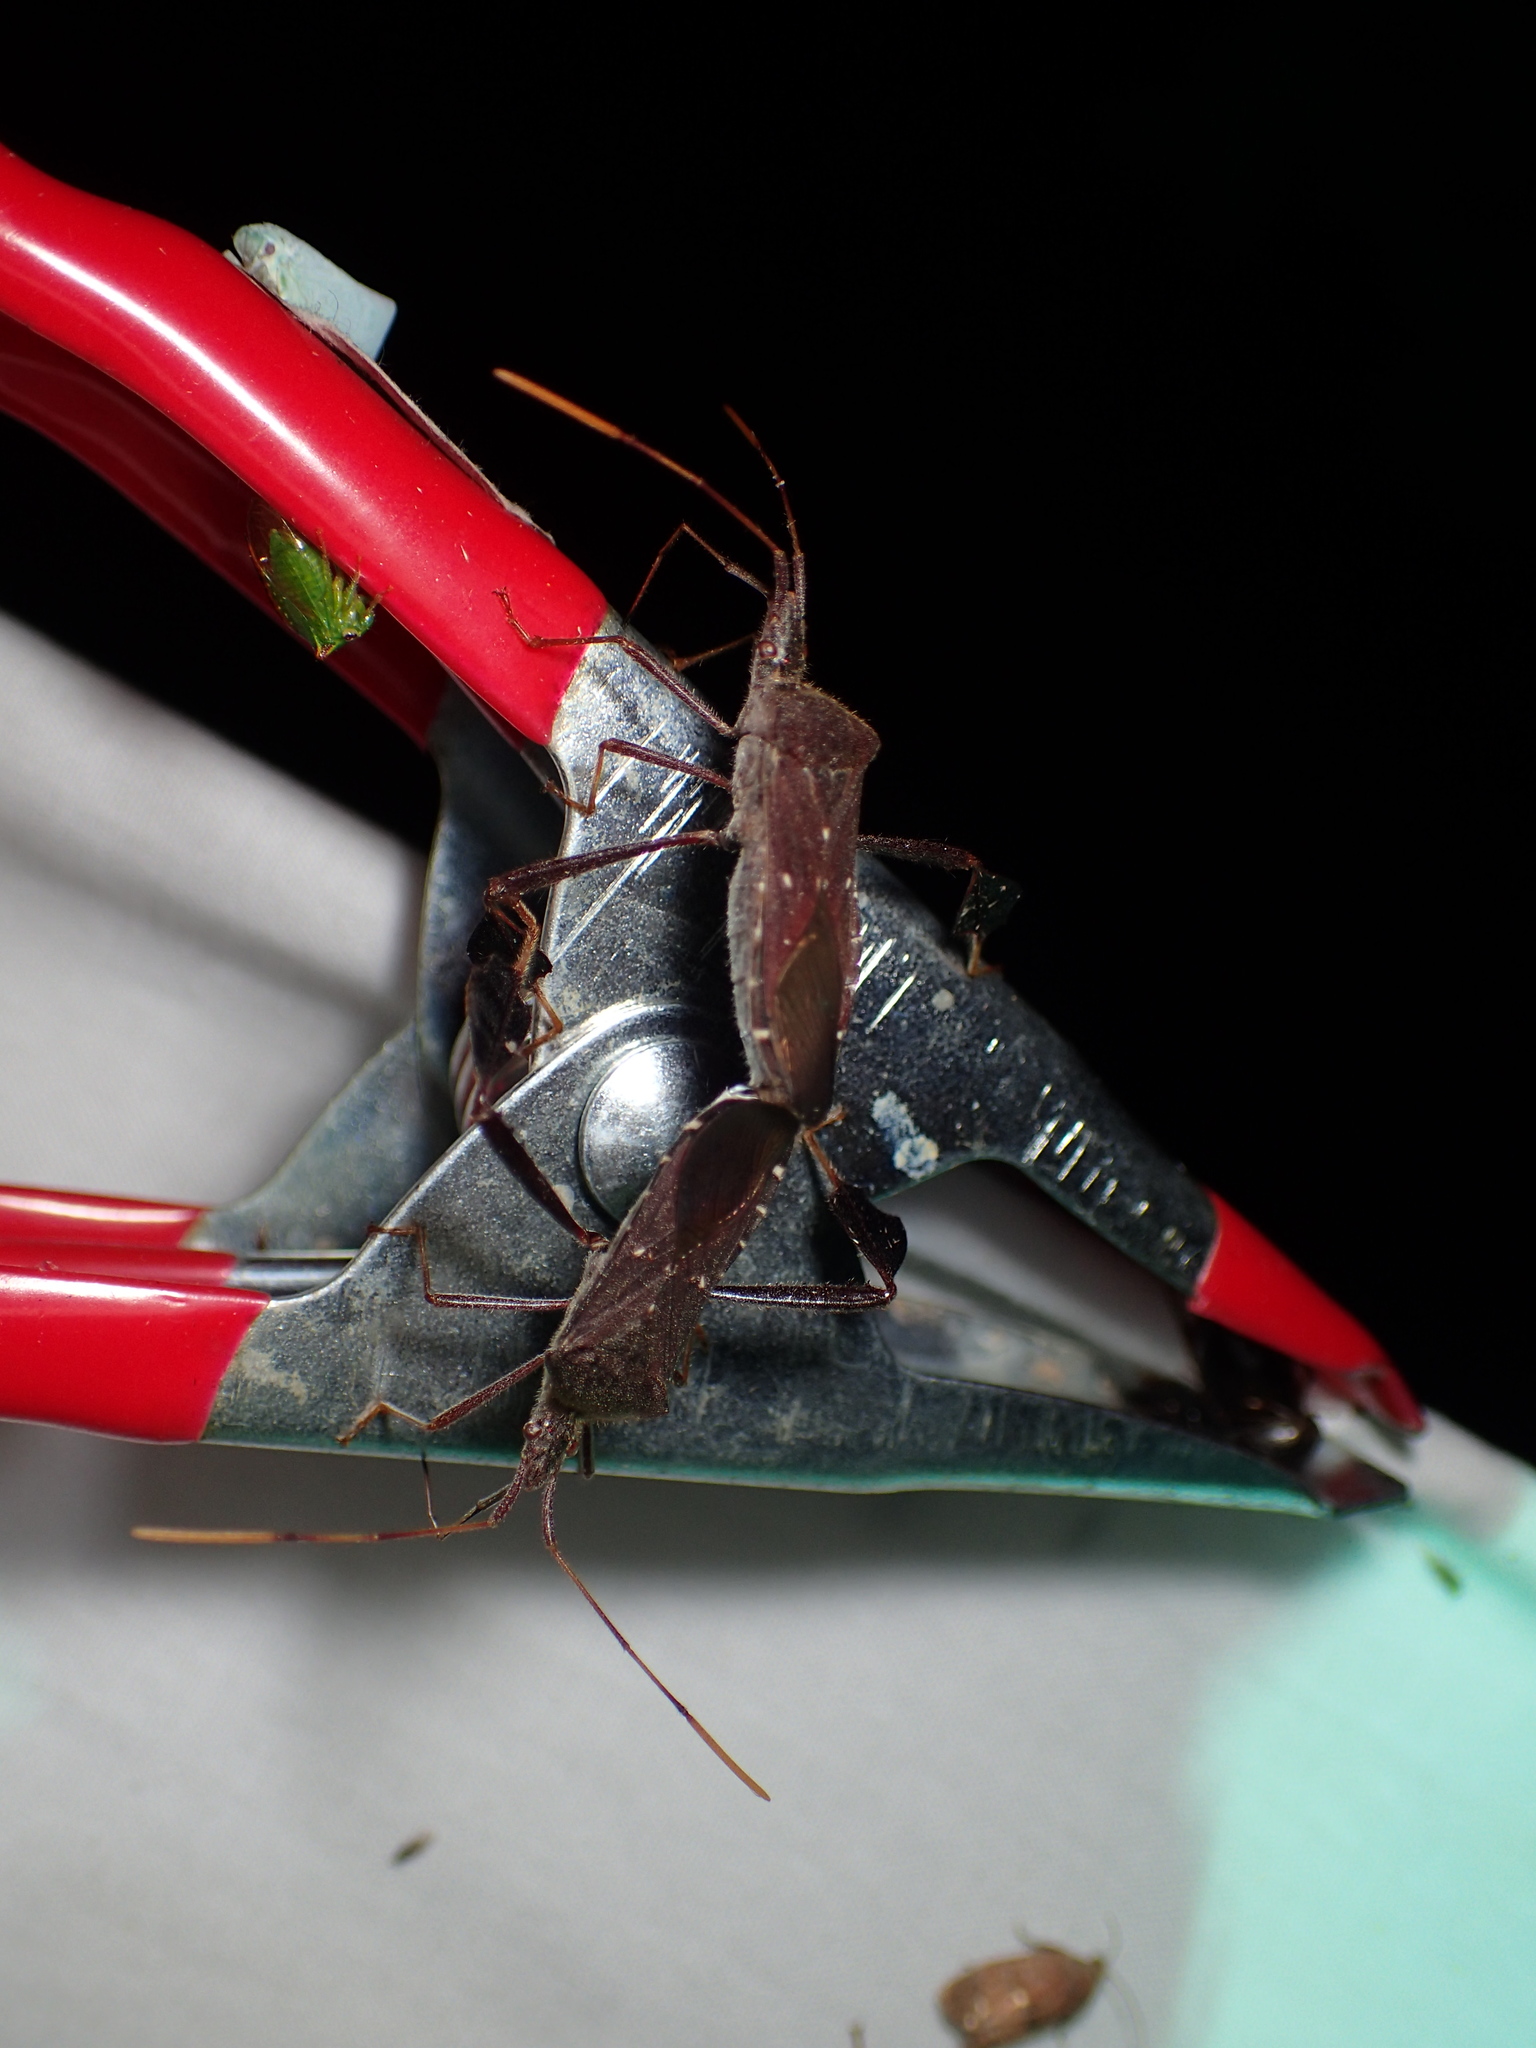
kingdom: Animalia
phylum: Arthropoda
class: Insecta
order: Hemiptera
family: Coreidae
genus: Leptoglossus
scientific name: Leptoglossus oppositus
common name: Northern leaf-footed bug
